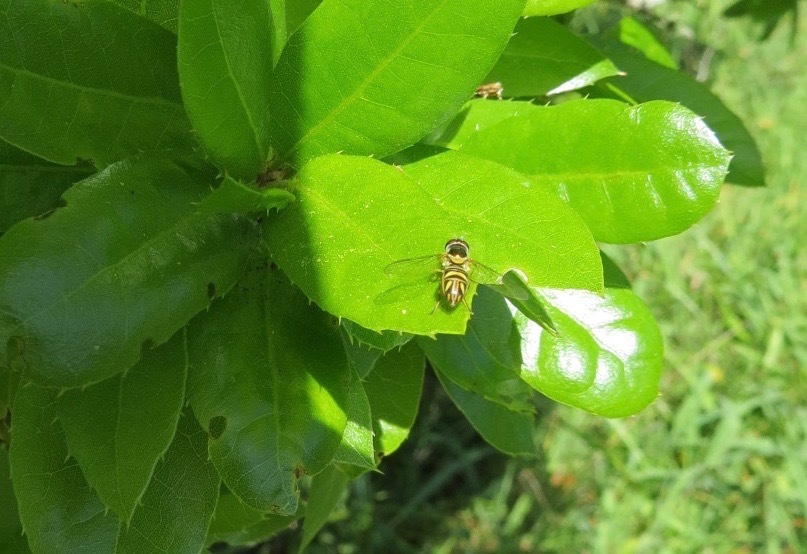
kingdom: Animalia
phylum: Arthropoda
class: Insecta
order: Diptera
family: Syrphidae
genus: Allograpta
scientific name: Allograpta obliqua
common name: Common oblique syrphid
